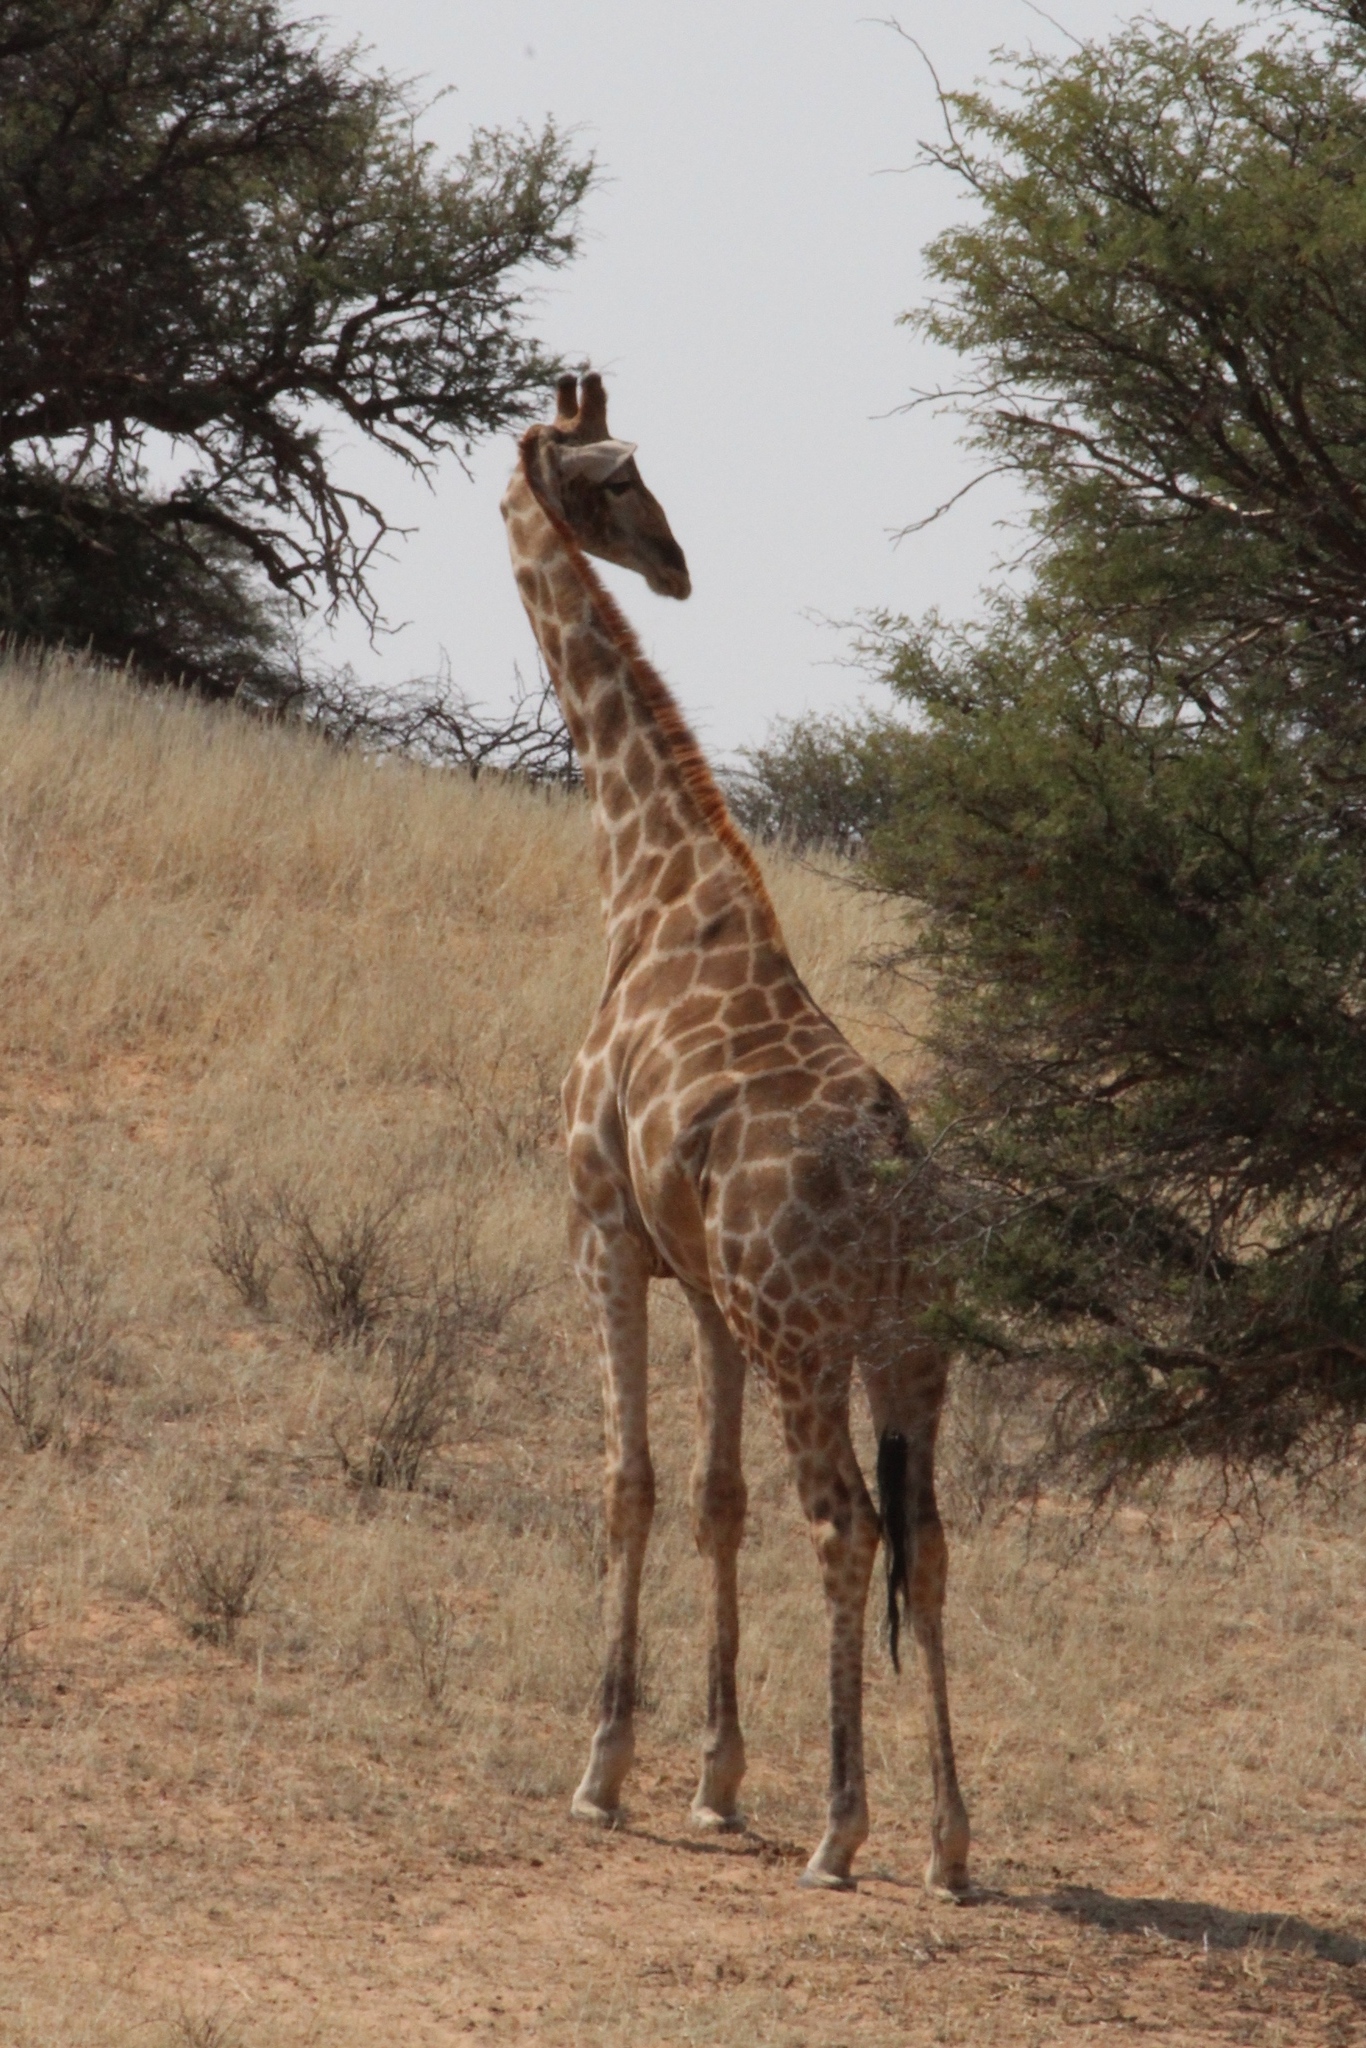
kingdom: Animalia
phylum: Chordata
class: Mammalia
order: Artiodactyla
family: Giraffidae
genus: Giraffa
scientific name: Giraffa giraffa
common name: Southern giraffe
